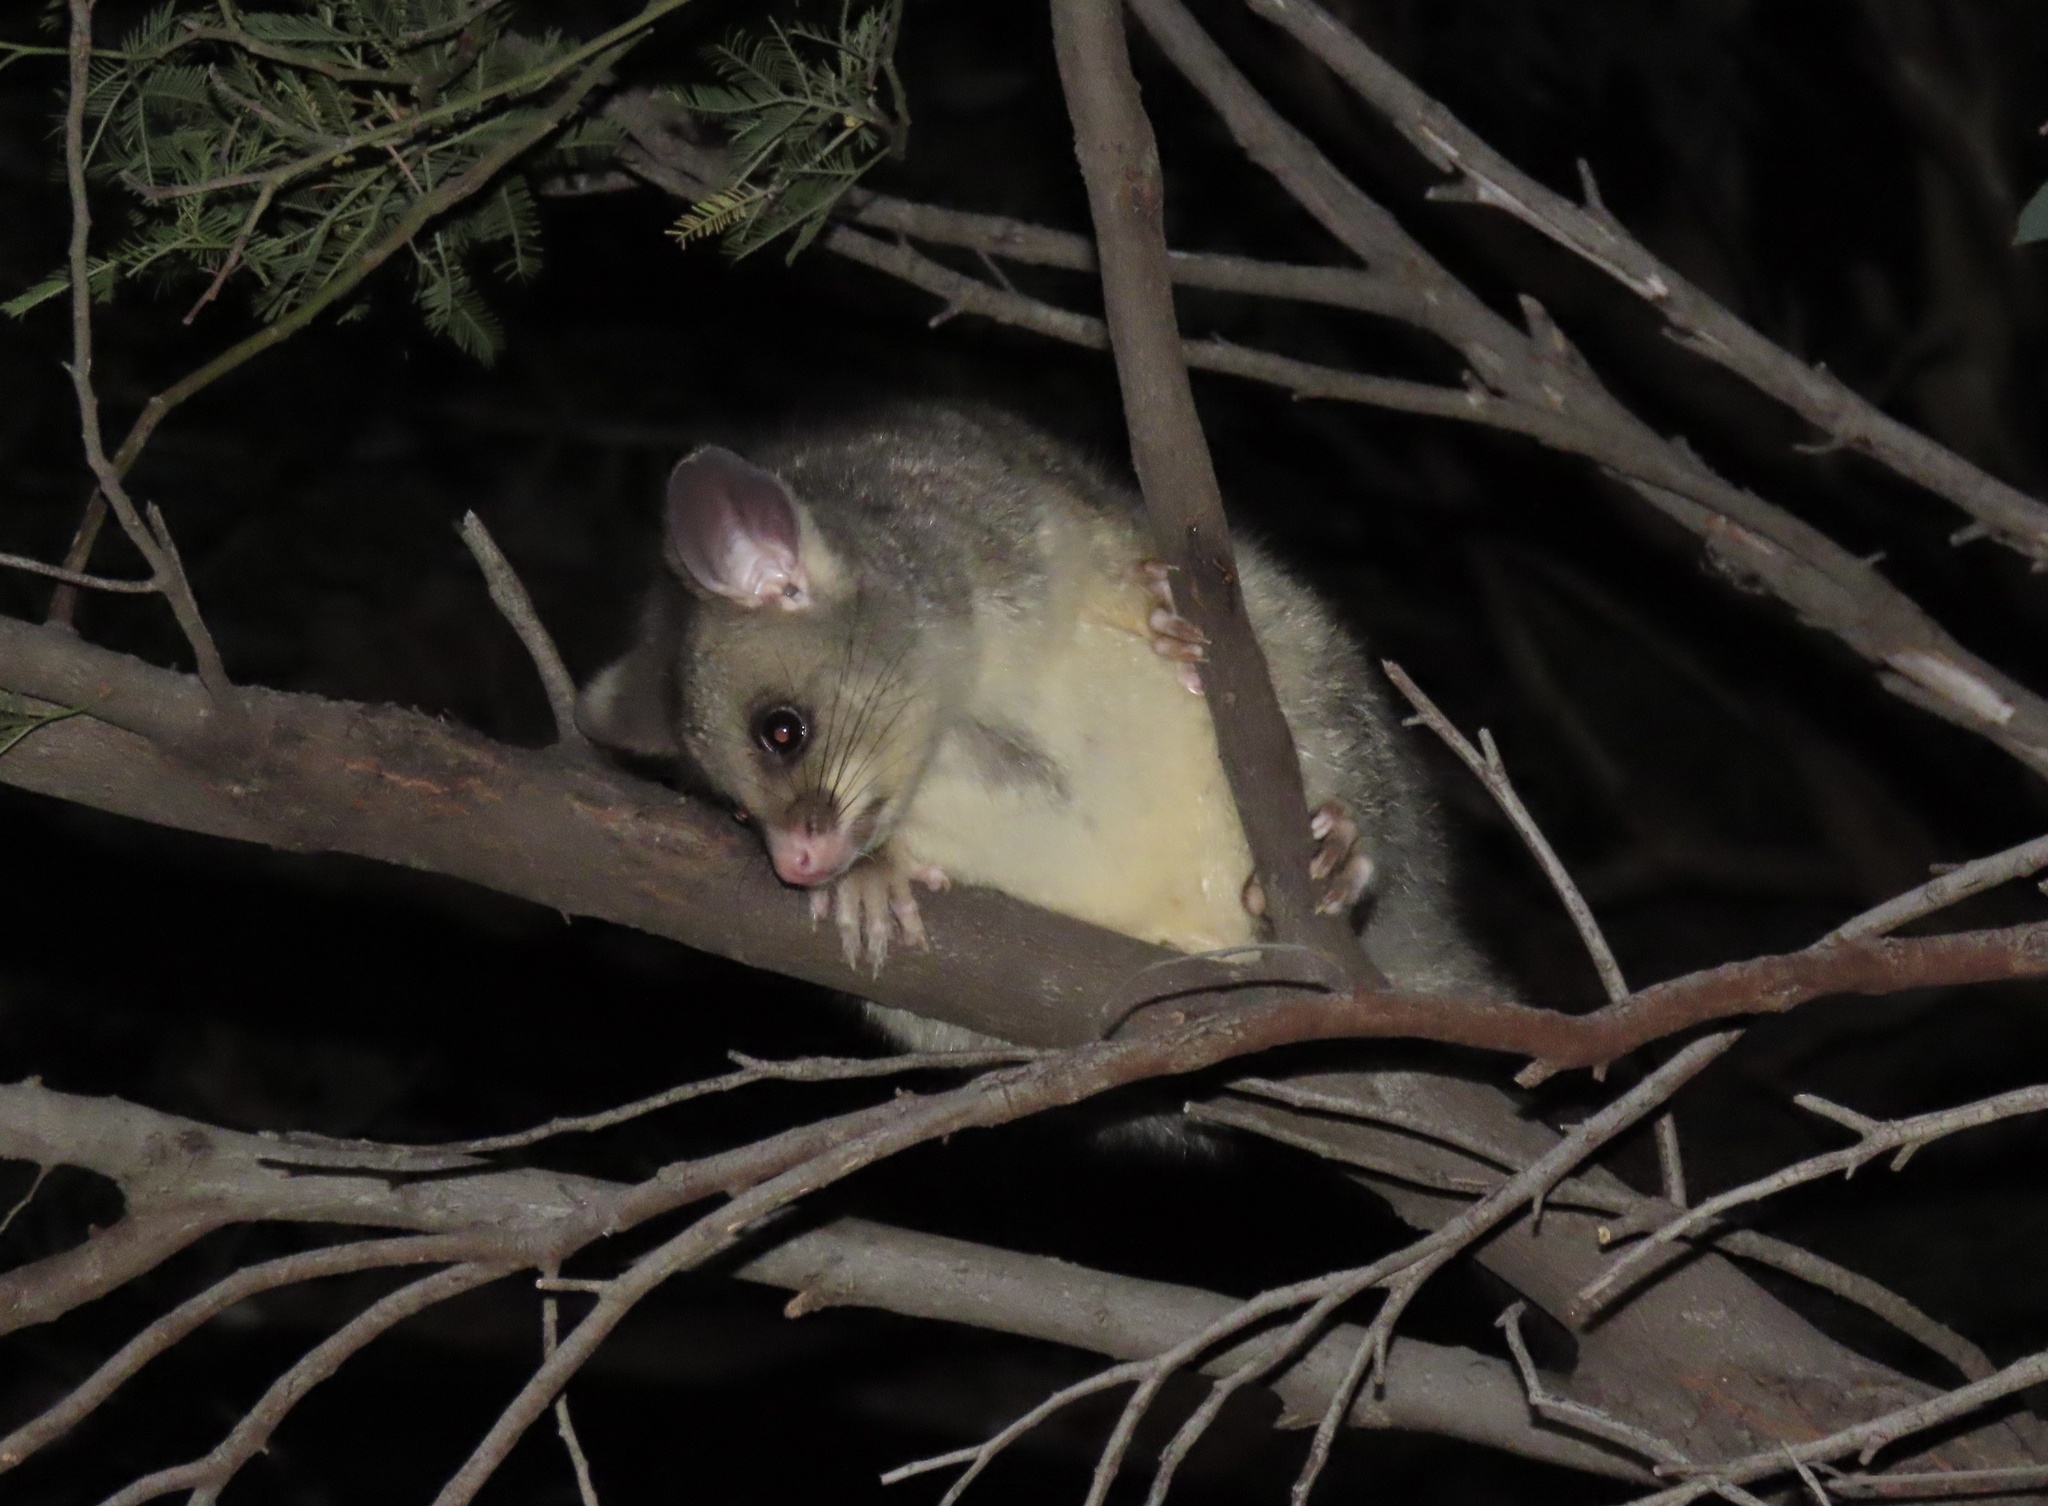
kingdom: Animalia
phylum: Chordata
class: Mammalia
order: Diprotodontia
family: Phalangeridae
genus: Trichosurus
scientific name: Trichosurus vulpecula
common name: Common brushtail
